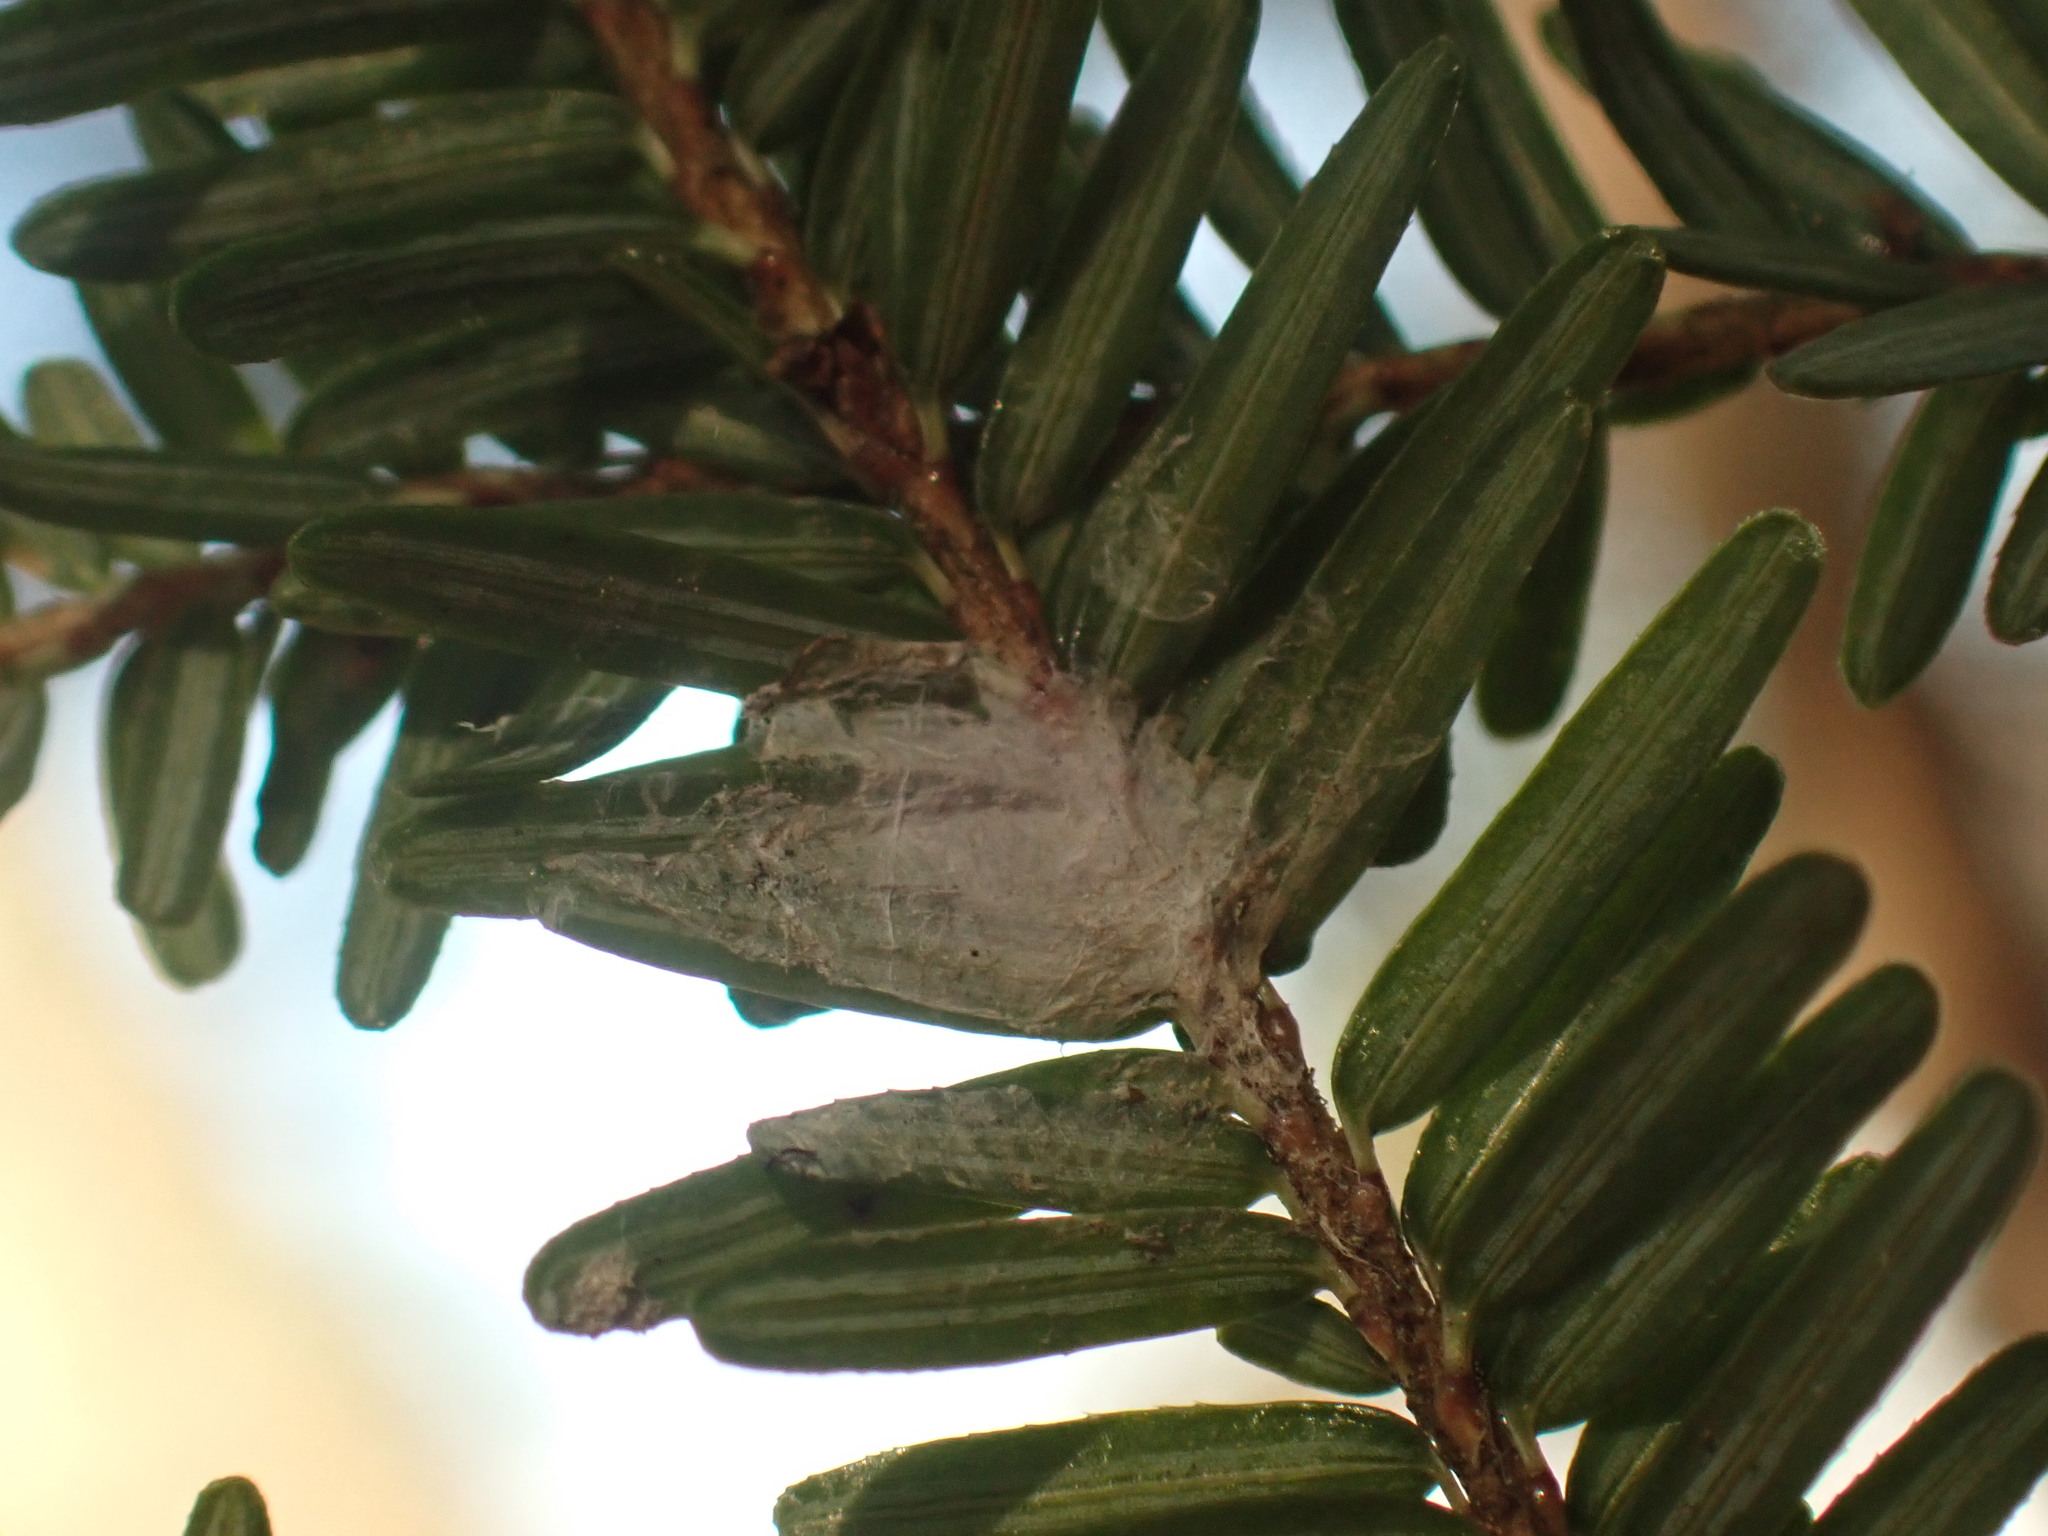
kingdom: Plantae
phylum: Tracheophyta
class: Pinopsida
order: Pinales
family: Pinaceae
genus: Tsuga
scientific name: Tsuga canadensis
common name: Eastern hemlock
